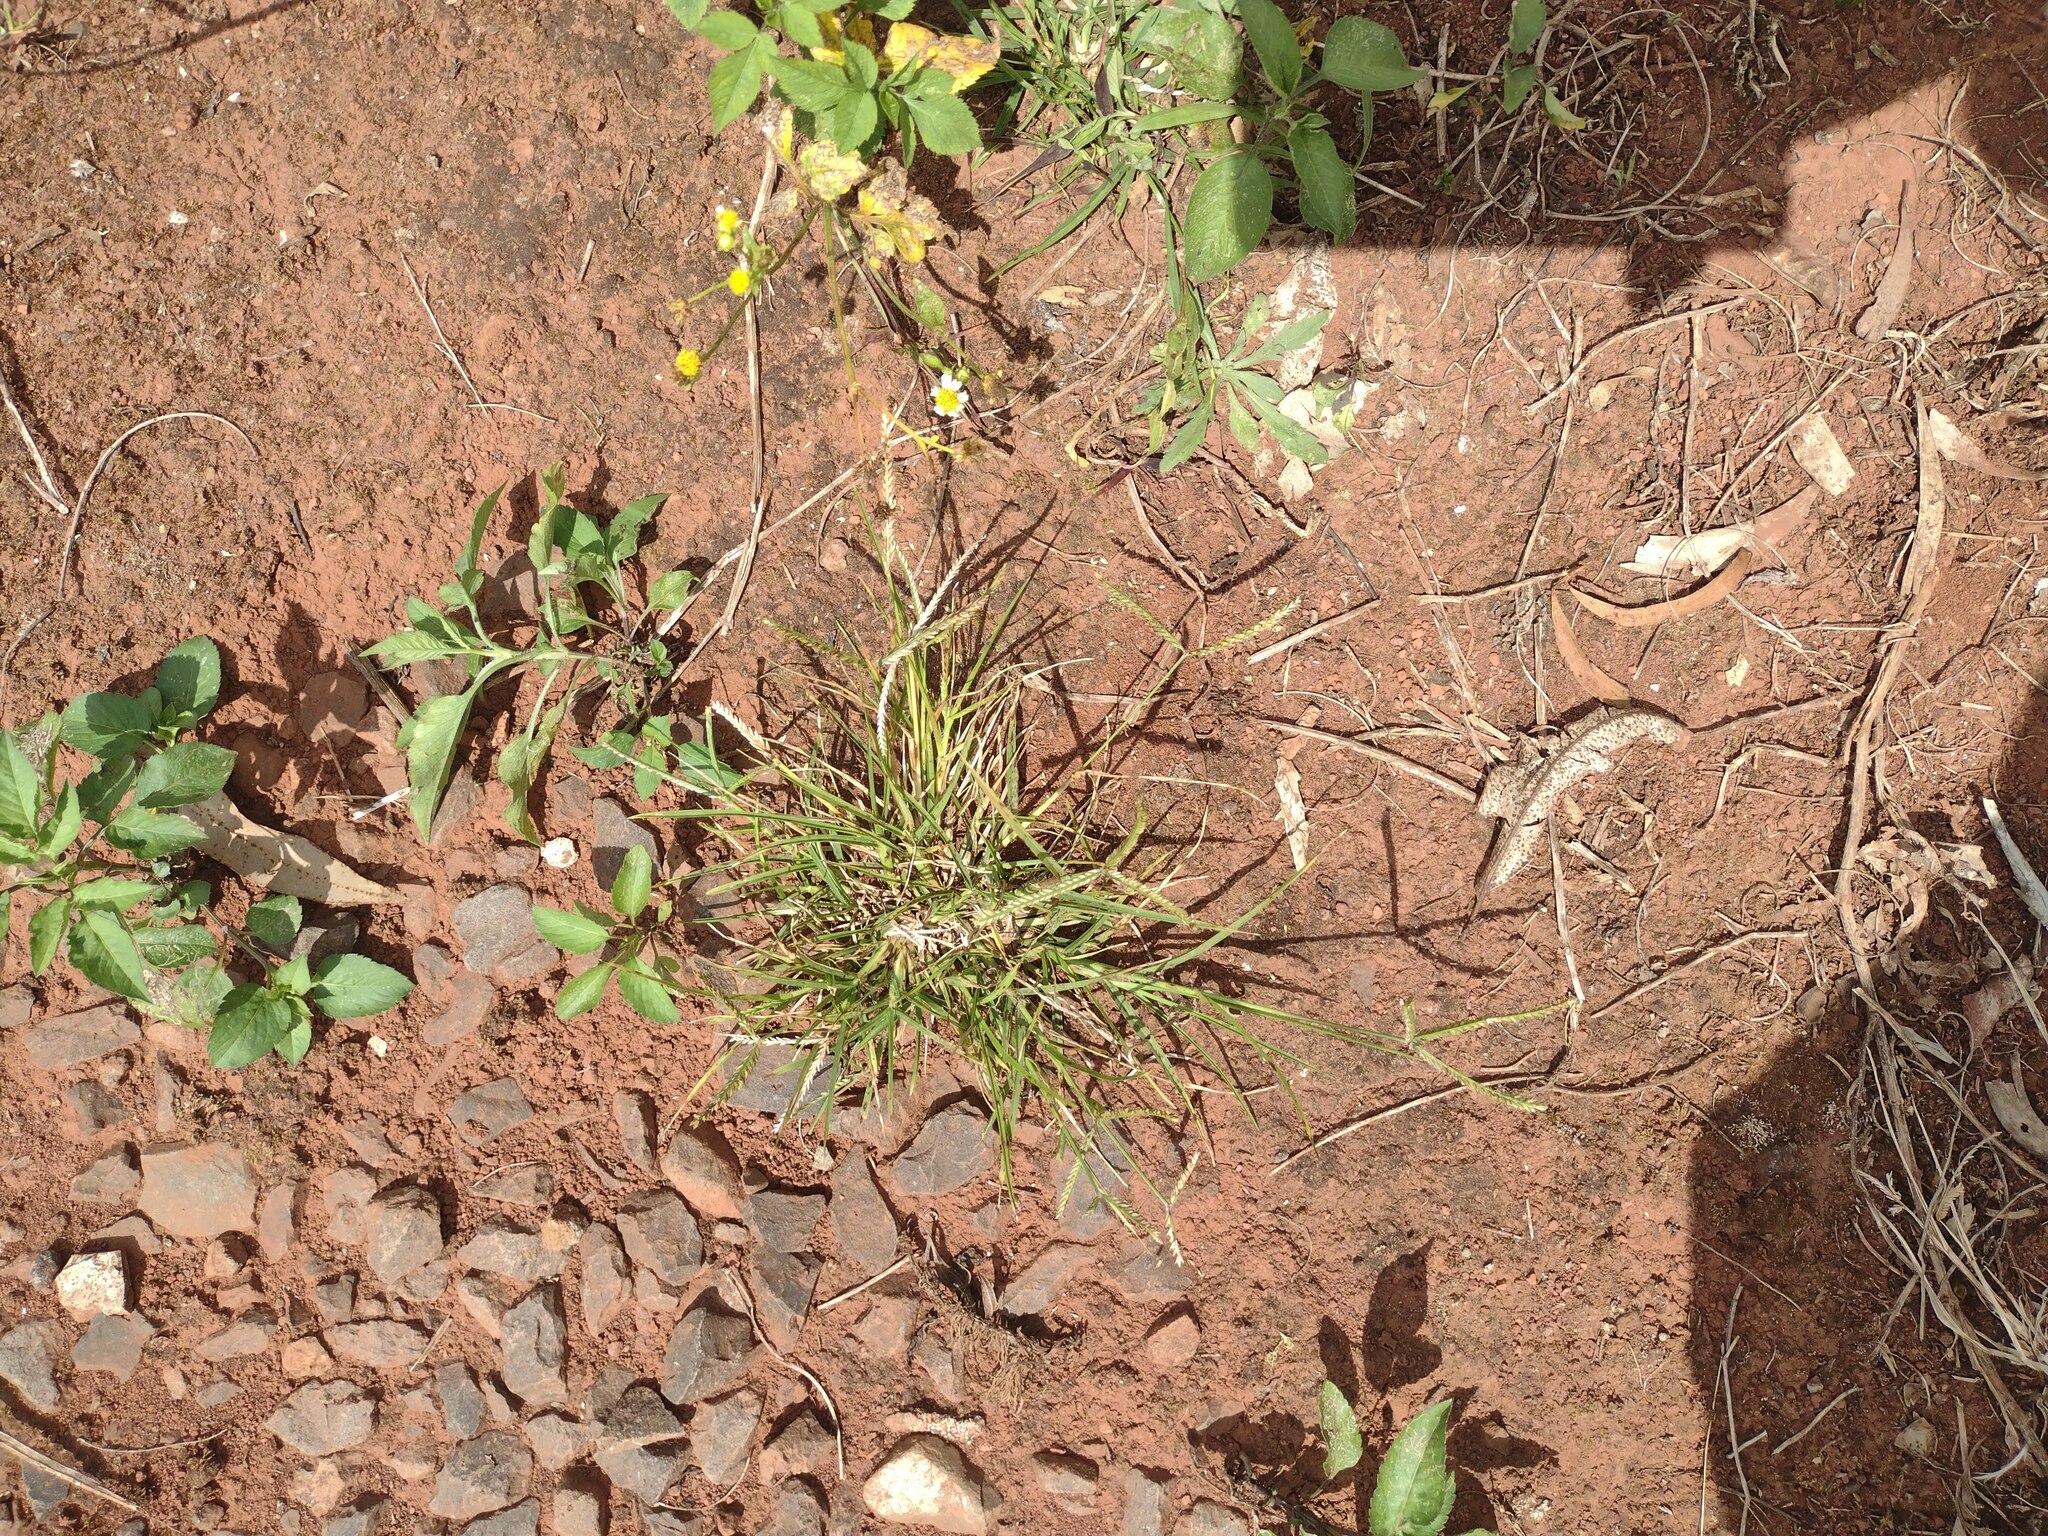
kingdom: Plantae
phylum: Tracheophyta
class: Liliopsida
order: Poales
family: Poaceae
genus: Eleusine
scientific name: Eleusine indica
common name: Yard-grass
